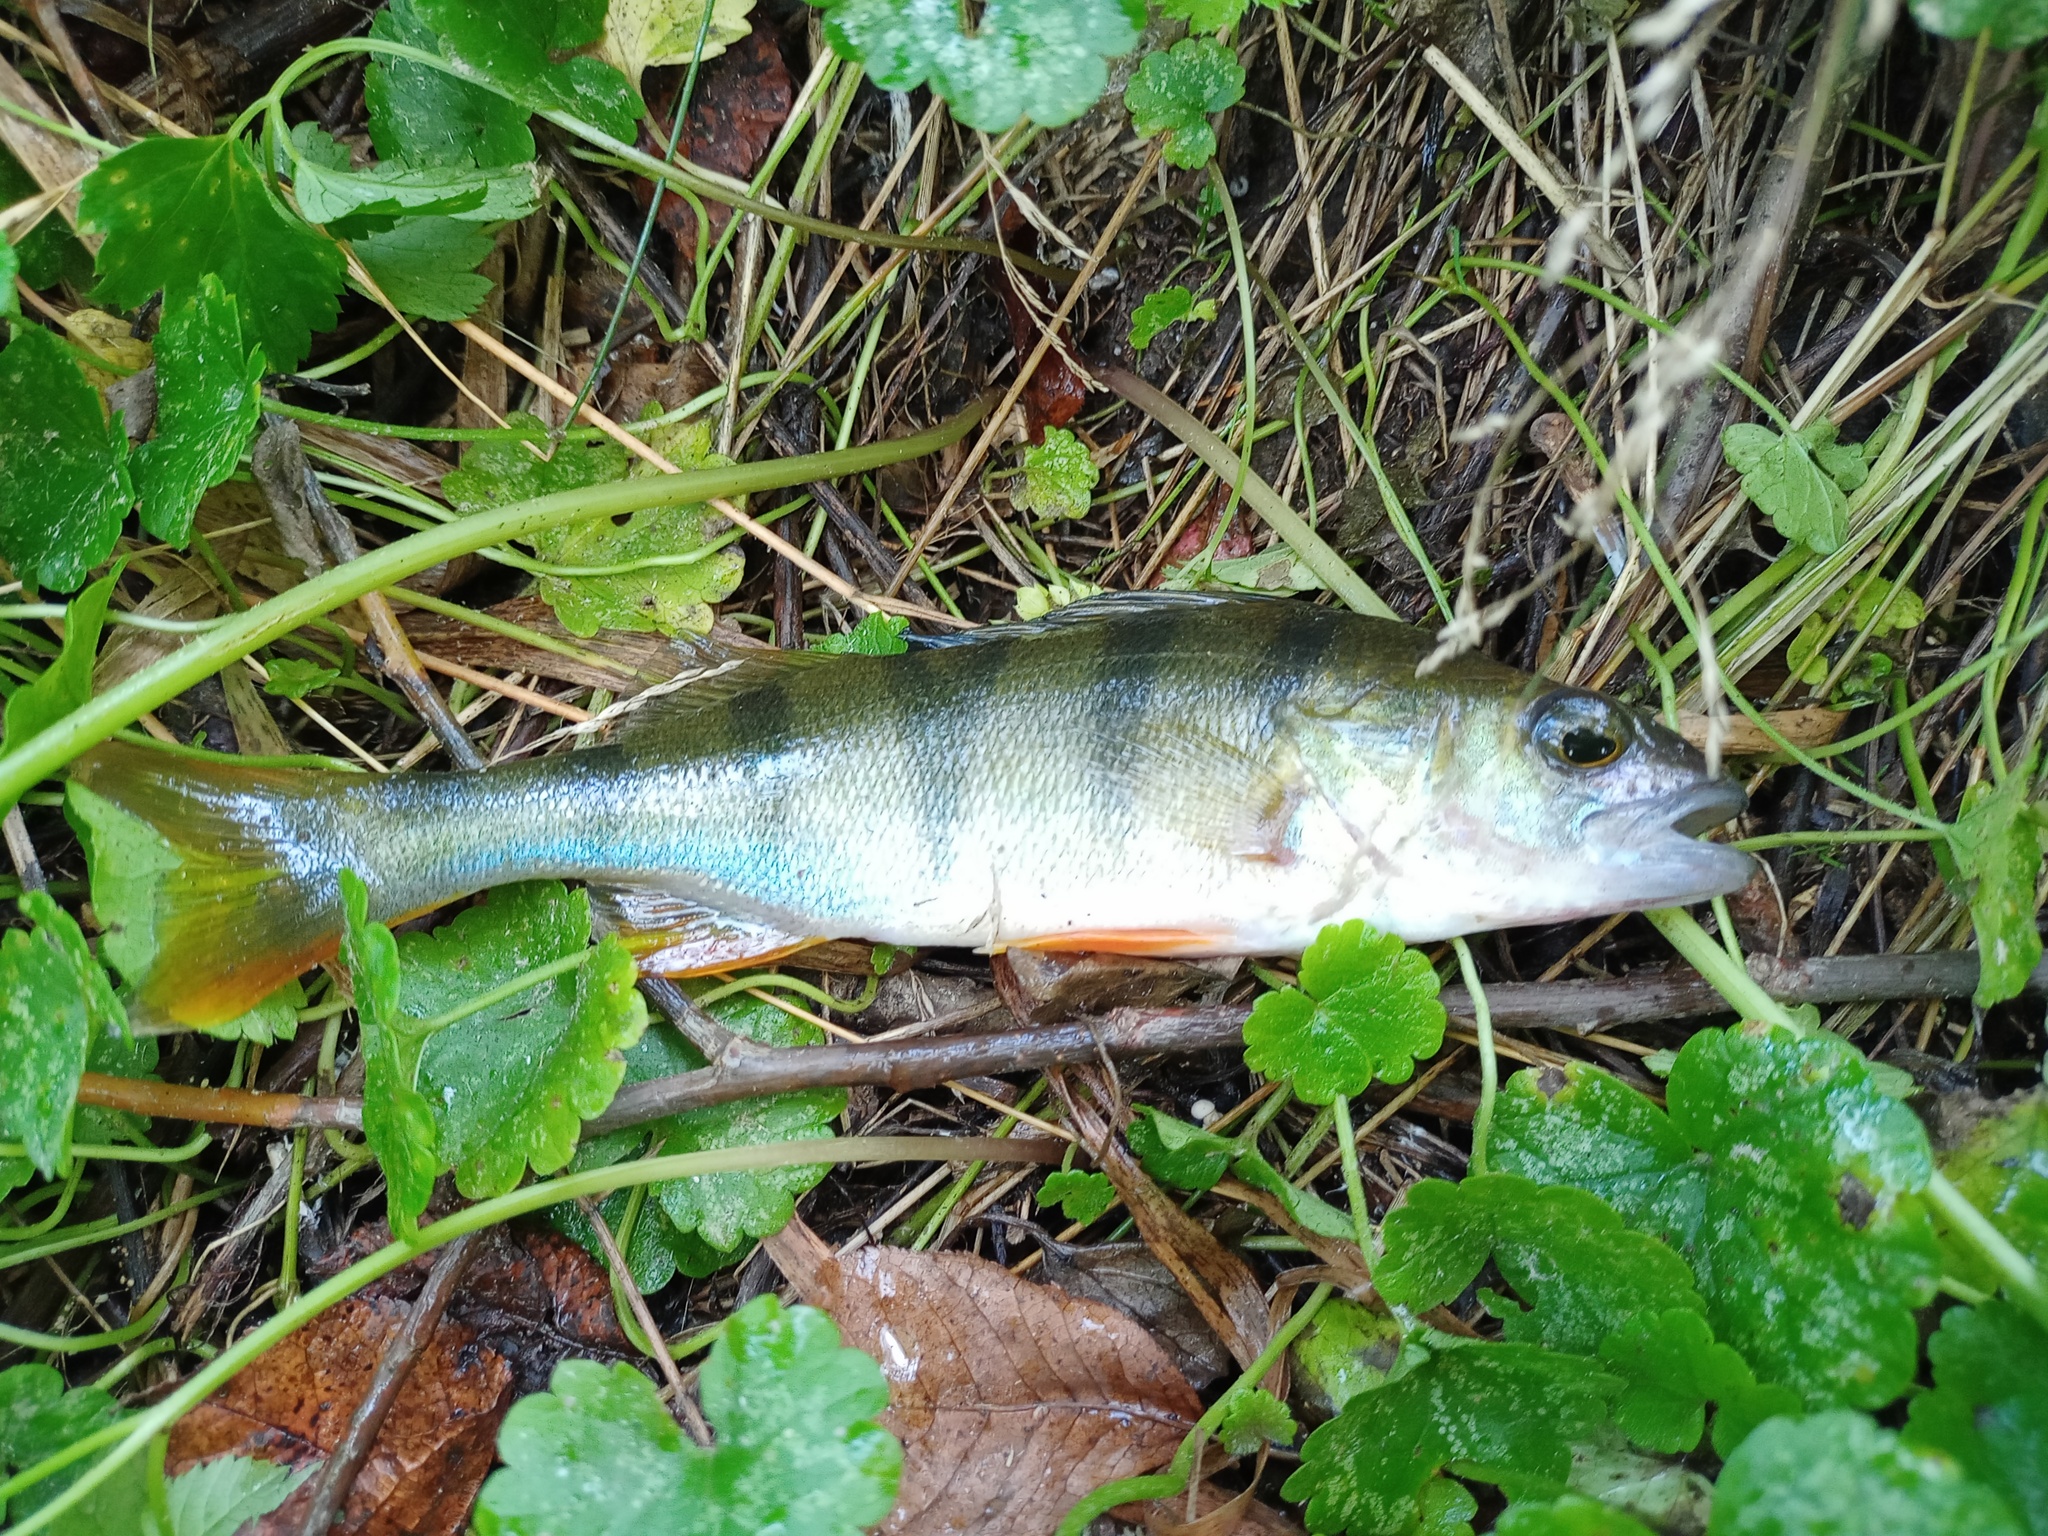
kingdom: Animalia
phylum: Chordata
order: Perciformes
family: Percidae
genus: Perca
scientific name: Perca fluviatilis
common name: Perch
